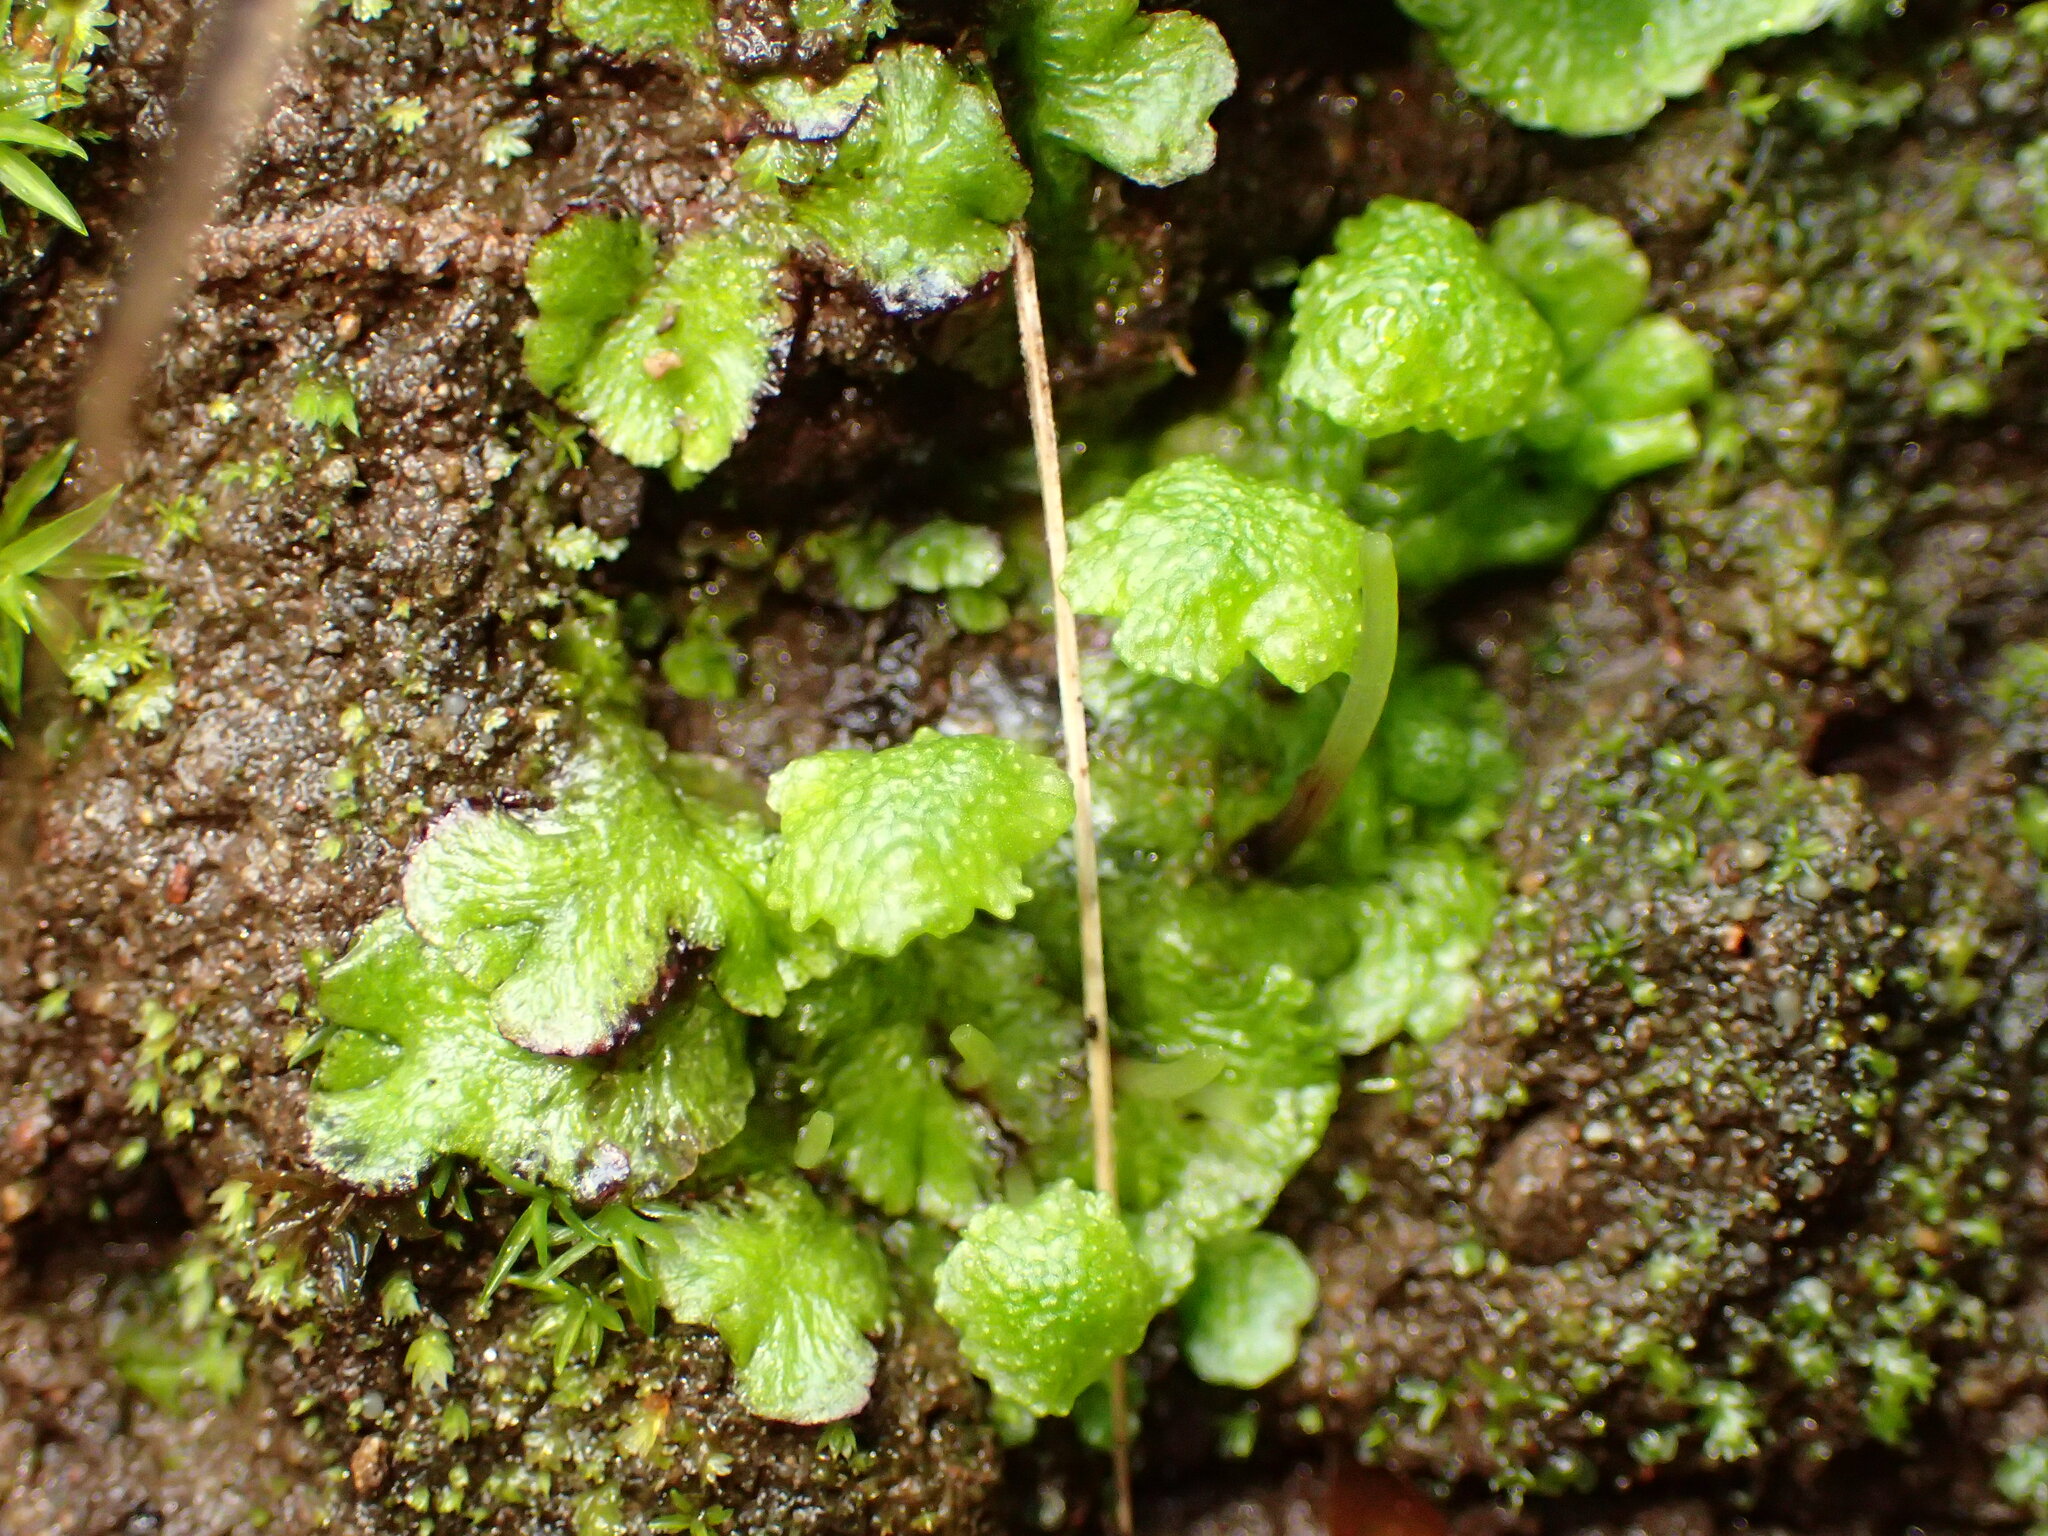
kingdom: Plantae
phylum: Marchantiophyta
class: Marchantiopsida
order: Marchantiales
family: Aytoniaceae
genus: Cryptomitrium
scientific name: Cryptomitrium tenerum
